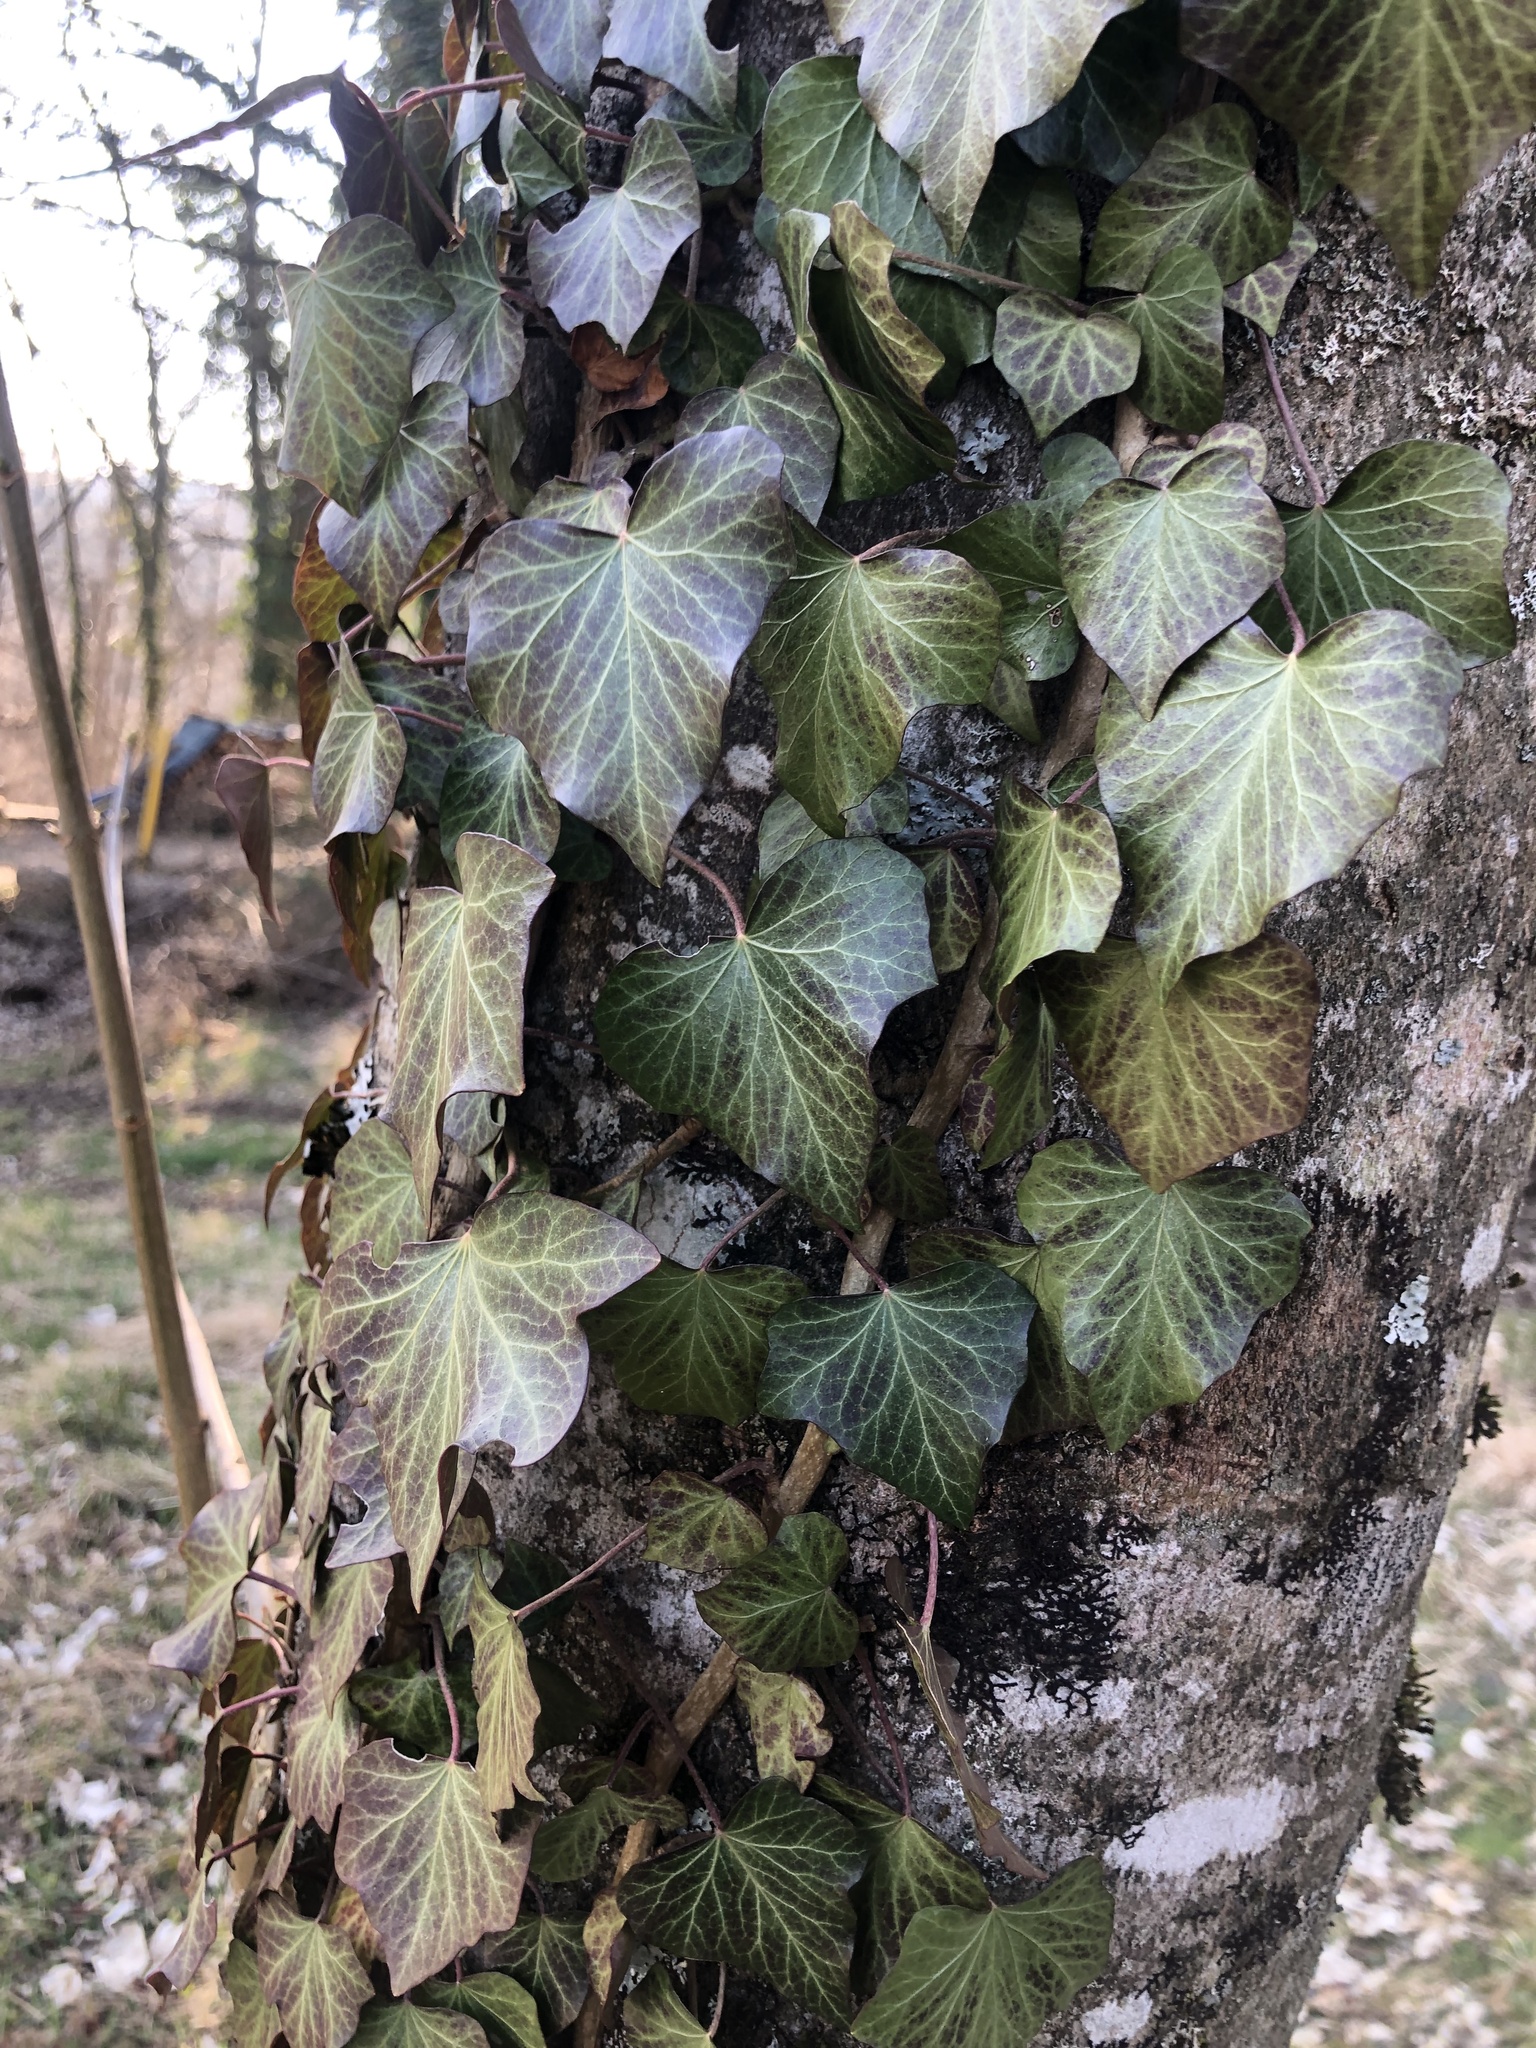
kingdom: Plantae
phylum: Tracheophyta
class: Magnoliopsida
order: Apiales
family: Araliaceae
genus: Hedera
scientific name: Hedera helix
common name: Ivy
